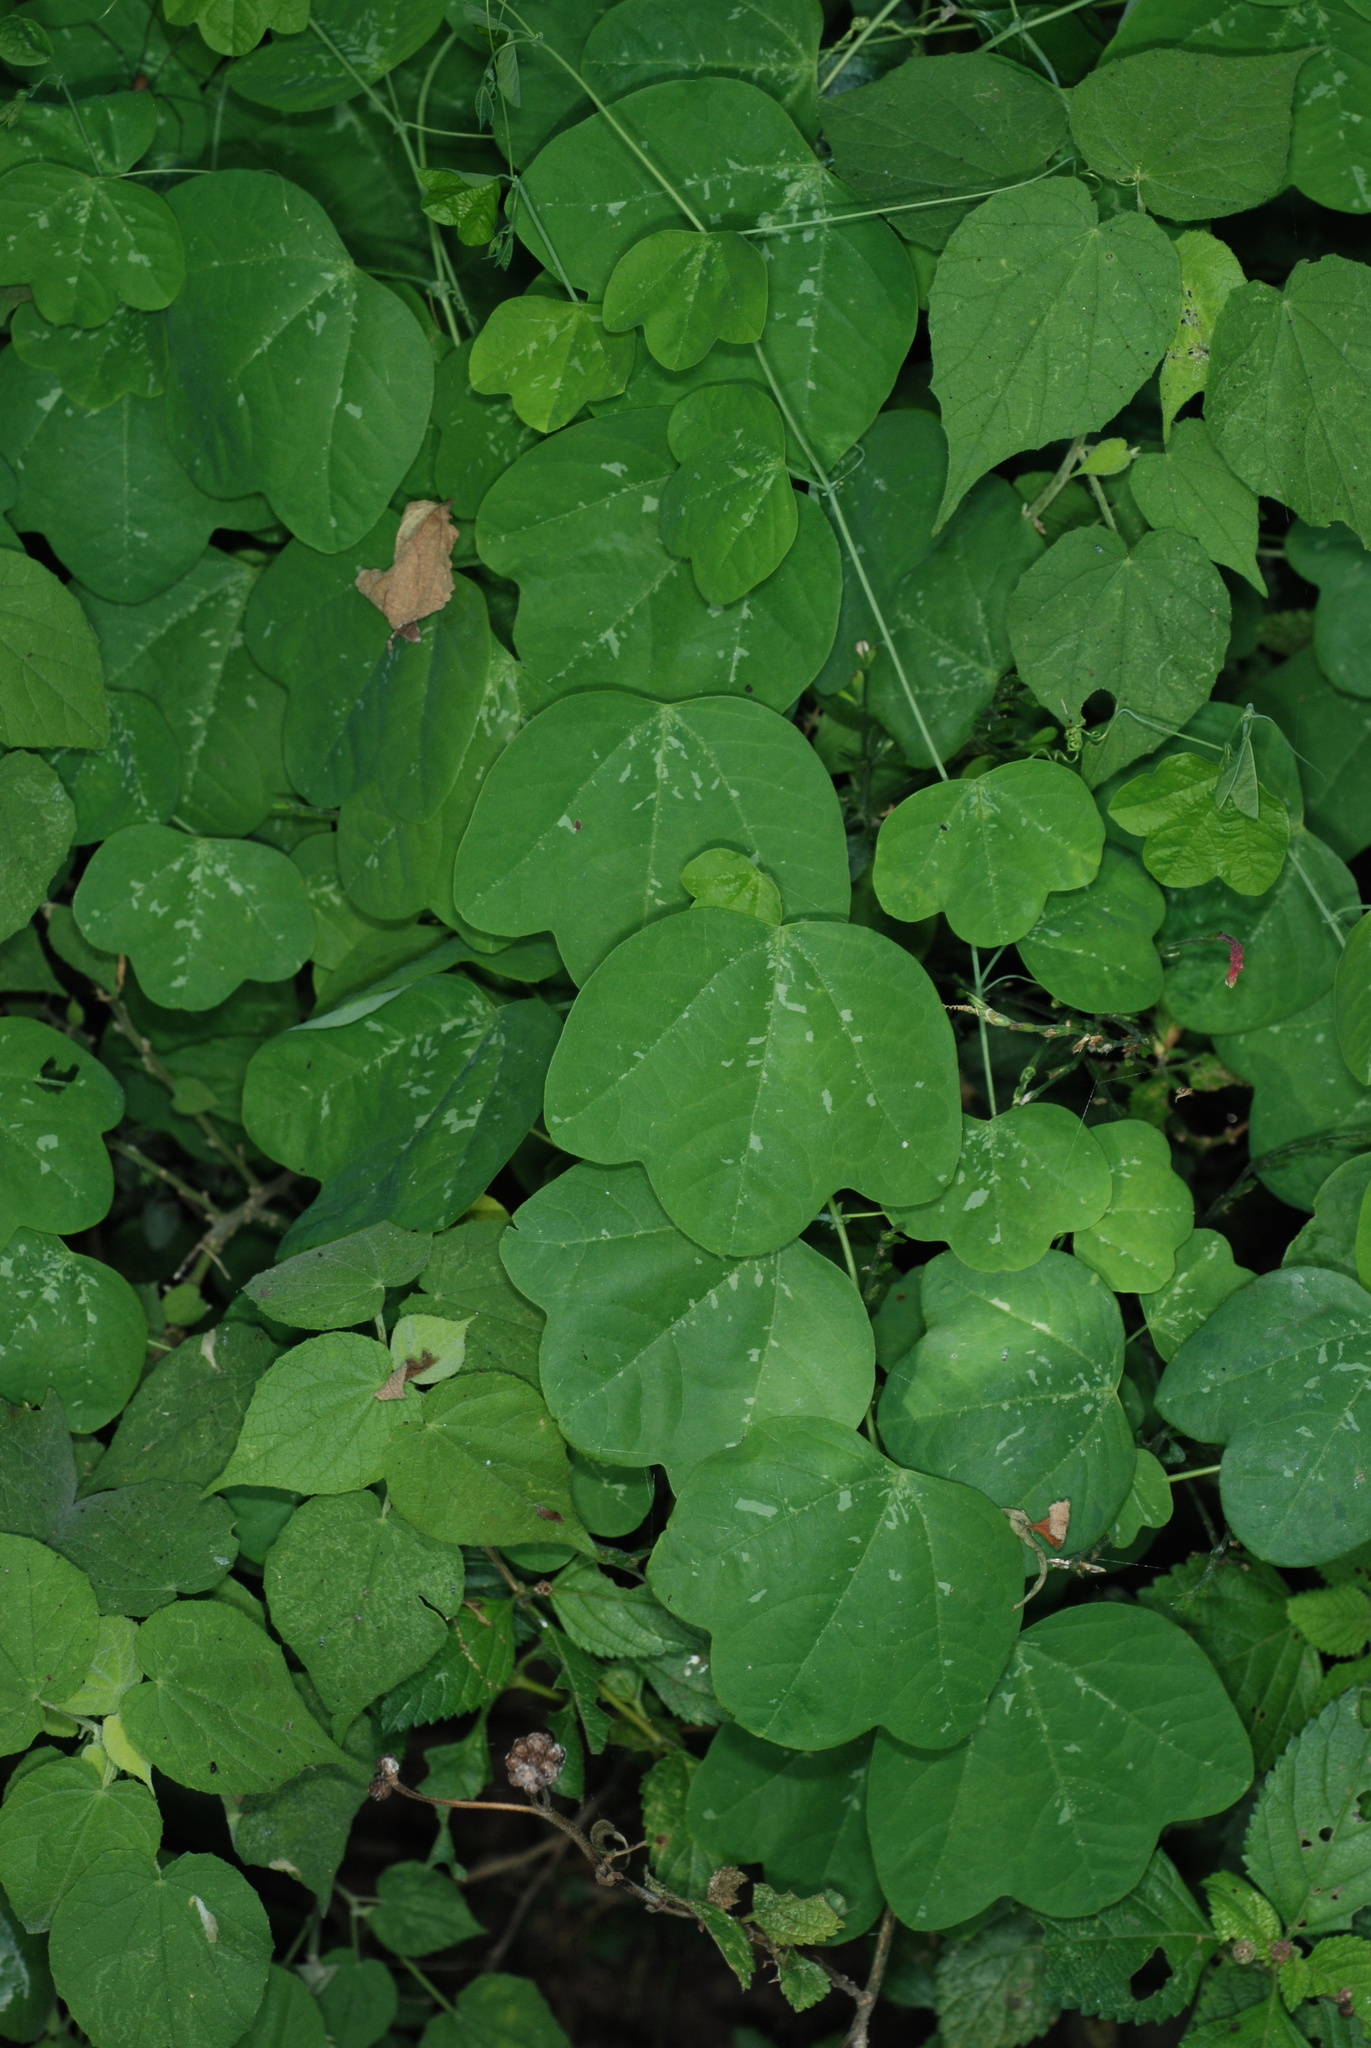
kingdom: Plantae
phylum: Tracheophyta
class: Magnoliopsida
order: Malpighiales
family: Passifloraceae
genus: Passiflora
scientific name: Passiflora filipes
